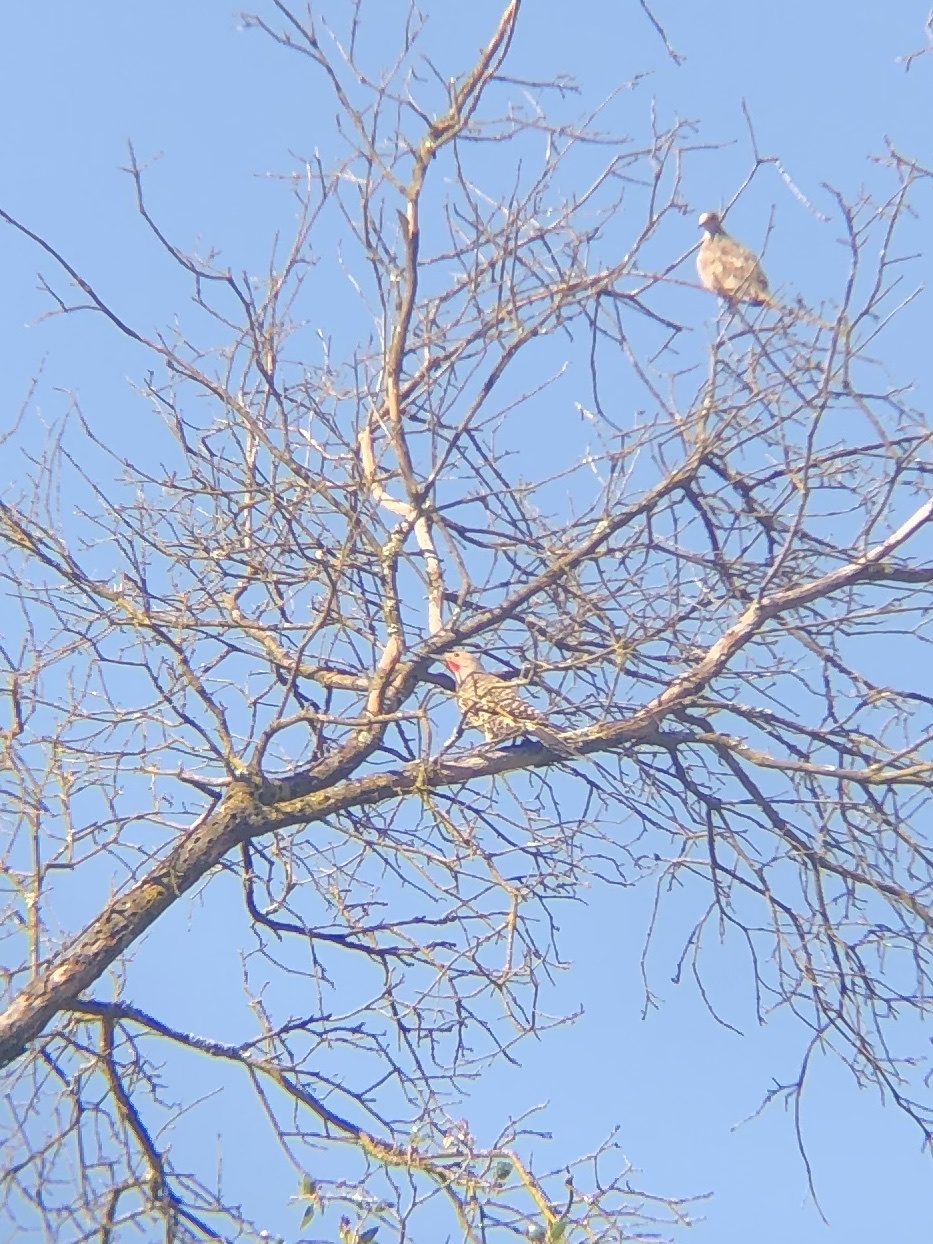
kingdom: Animalia
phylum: Chordata
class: Aves
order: Piciformes
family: Picidae
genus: Colaptes
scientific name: Colaptes auratus
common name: Northern flicker
